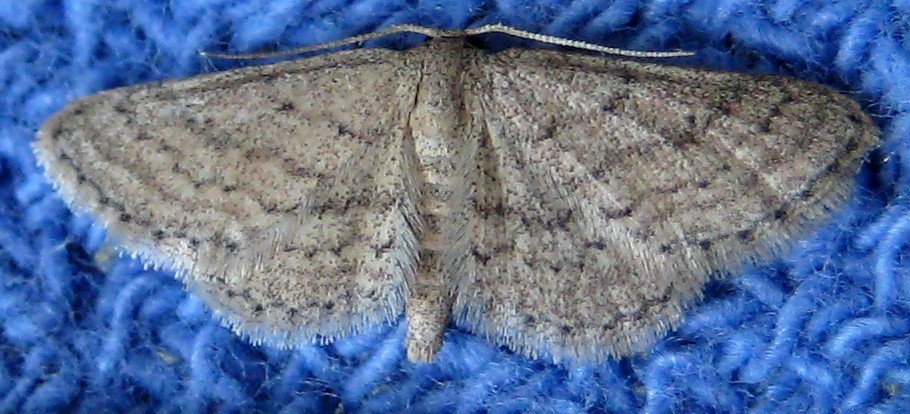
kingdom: Animalia
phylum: Arthropoda
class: Insecta
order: Lepidoptera
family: Geometridae
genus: Lobocleta
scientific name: Lobocleta ossularia
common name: Drab brown wave
